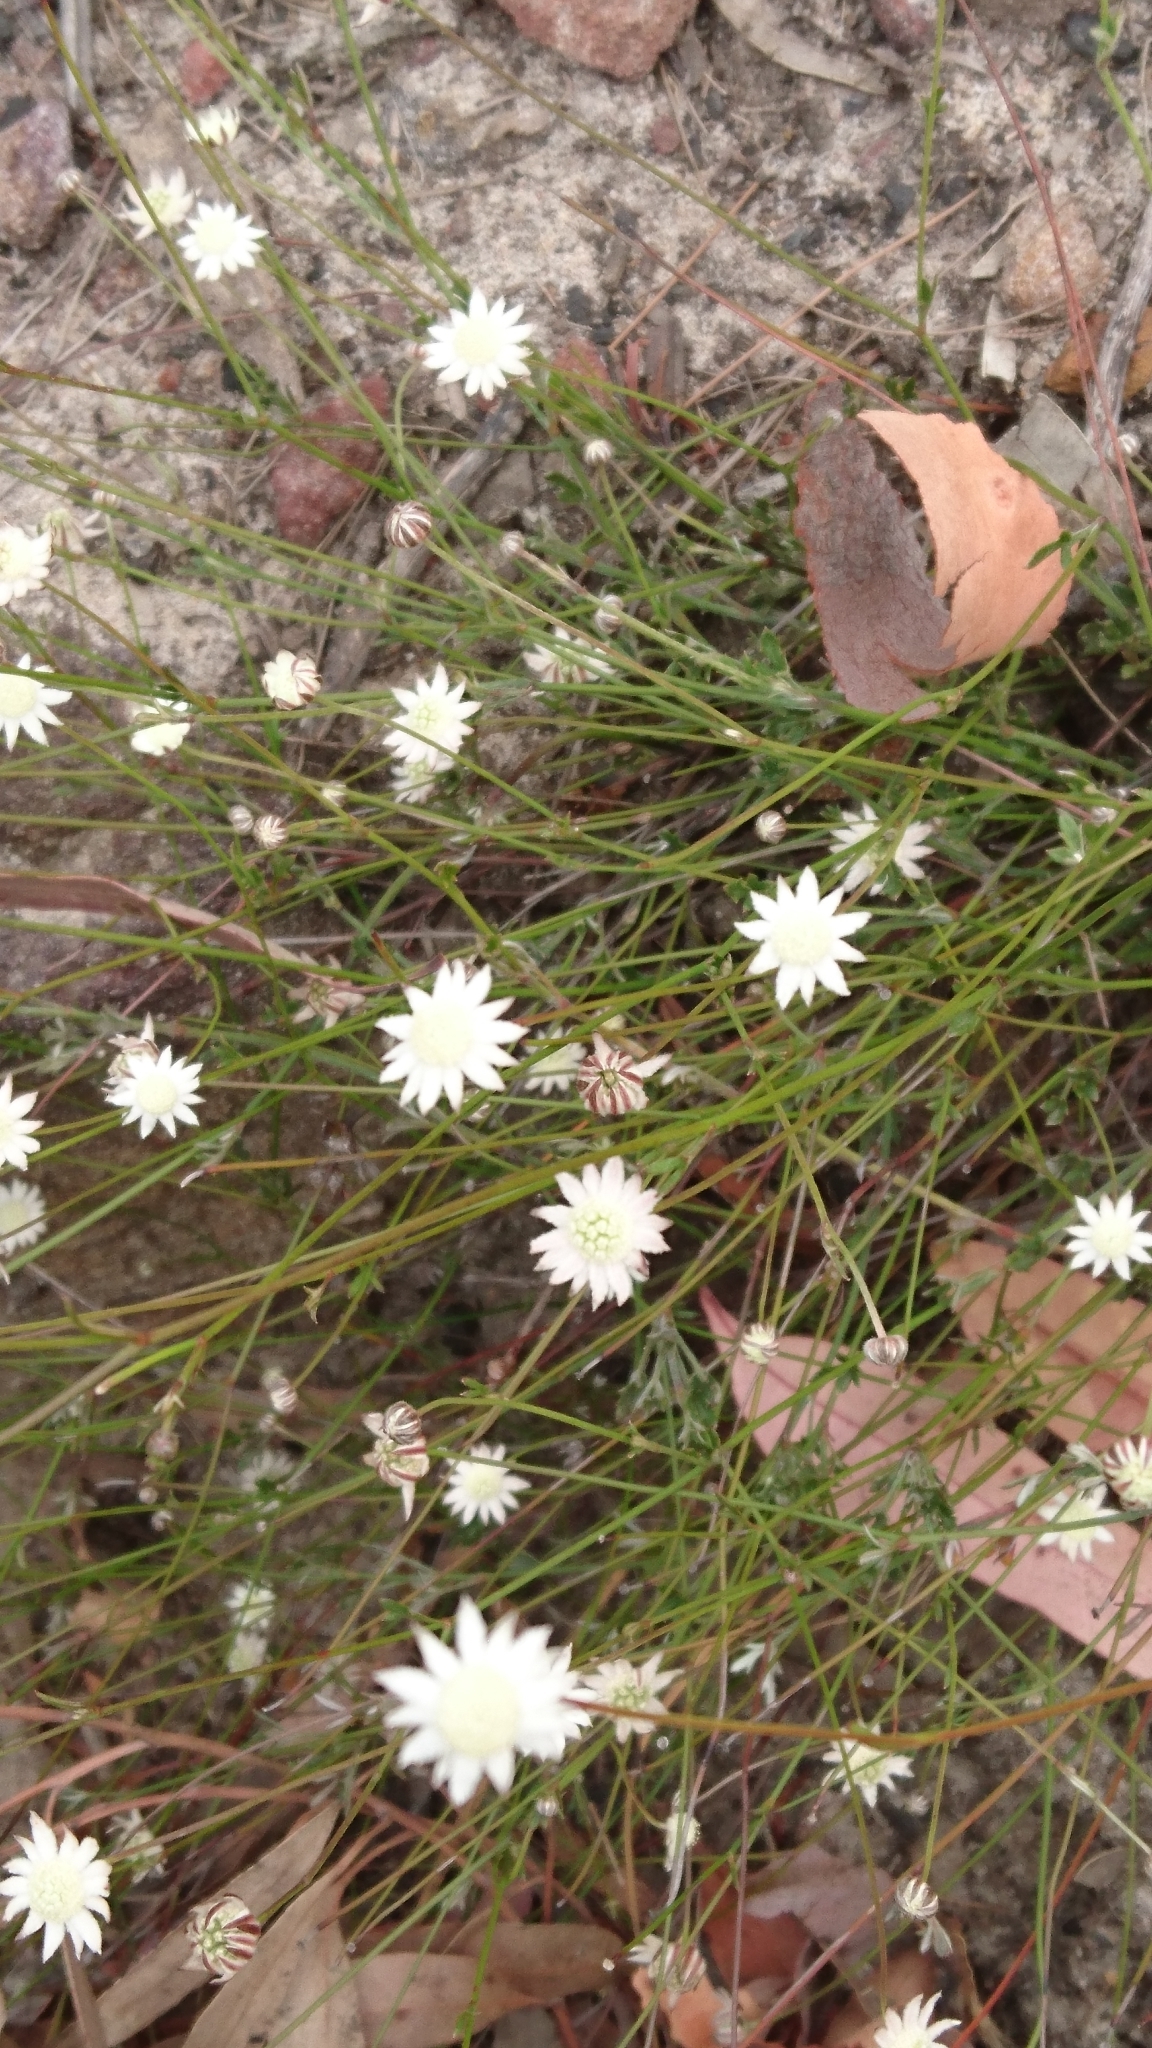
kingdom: Plantae
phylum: Tracheophyta
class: Magnoliopsida
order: Apiales
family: Apiaceae
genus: Actinotus
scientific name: Actinotus minor
